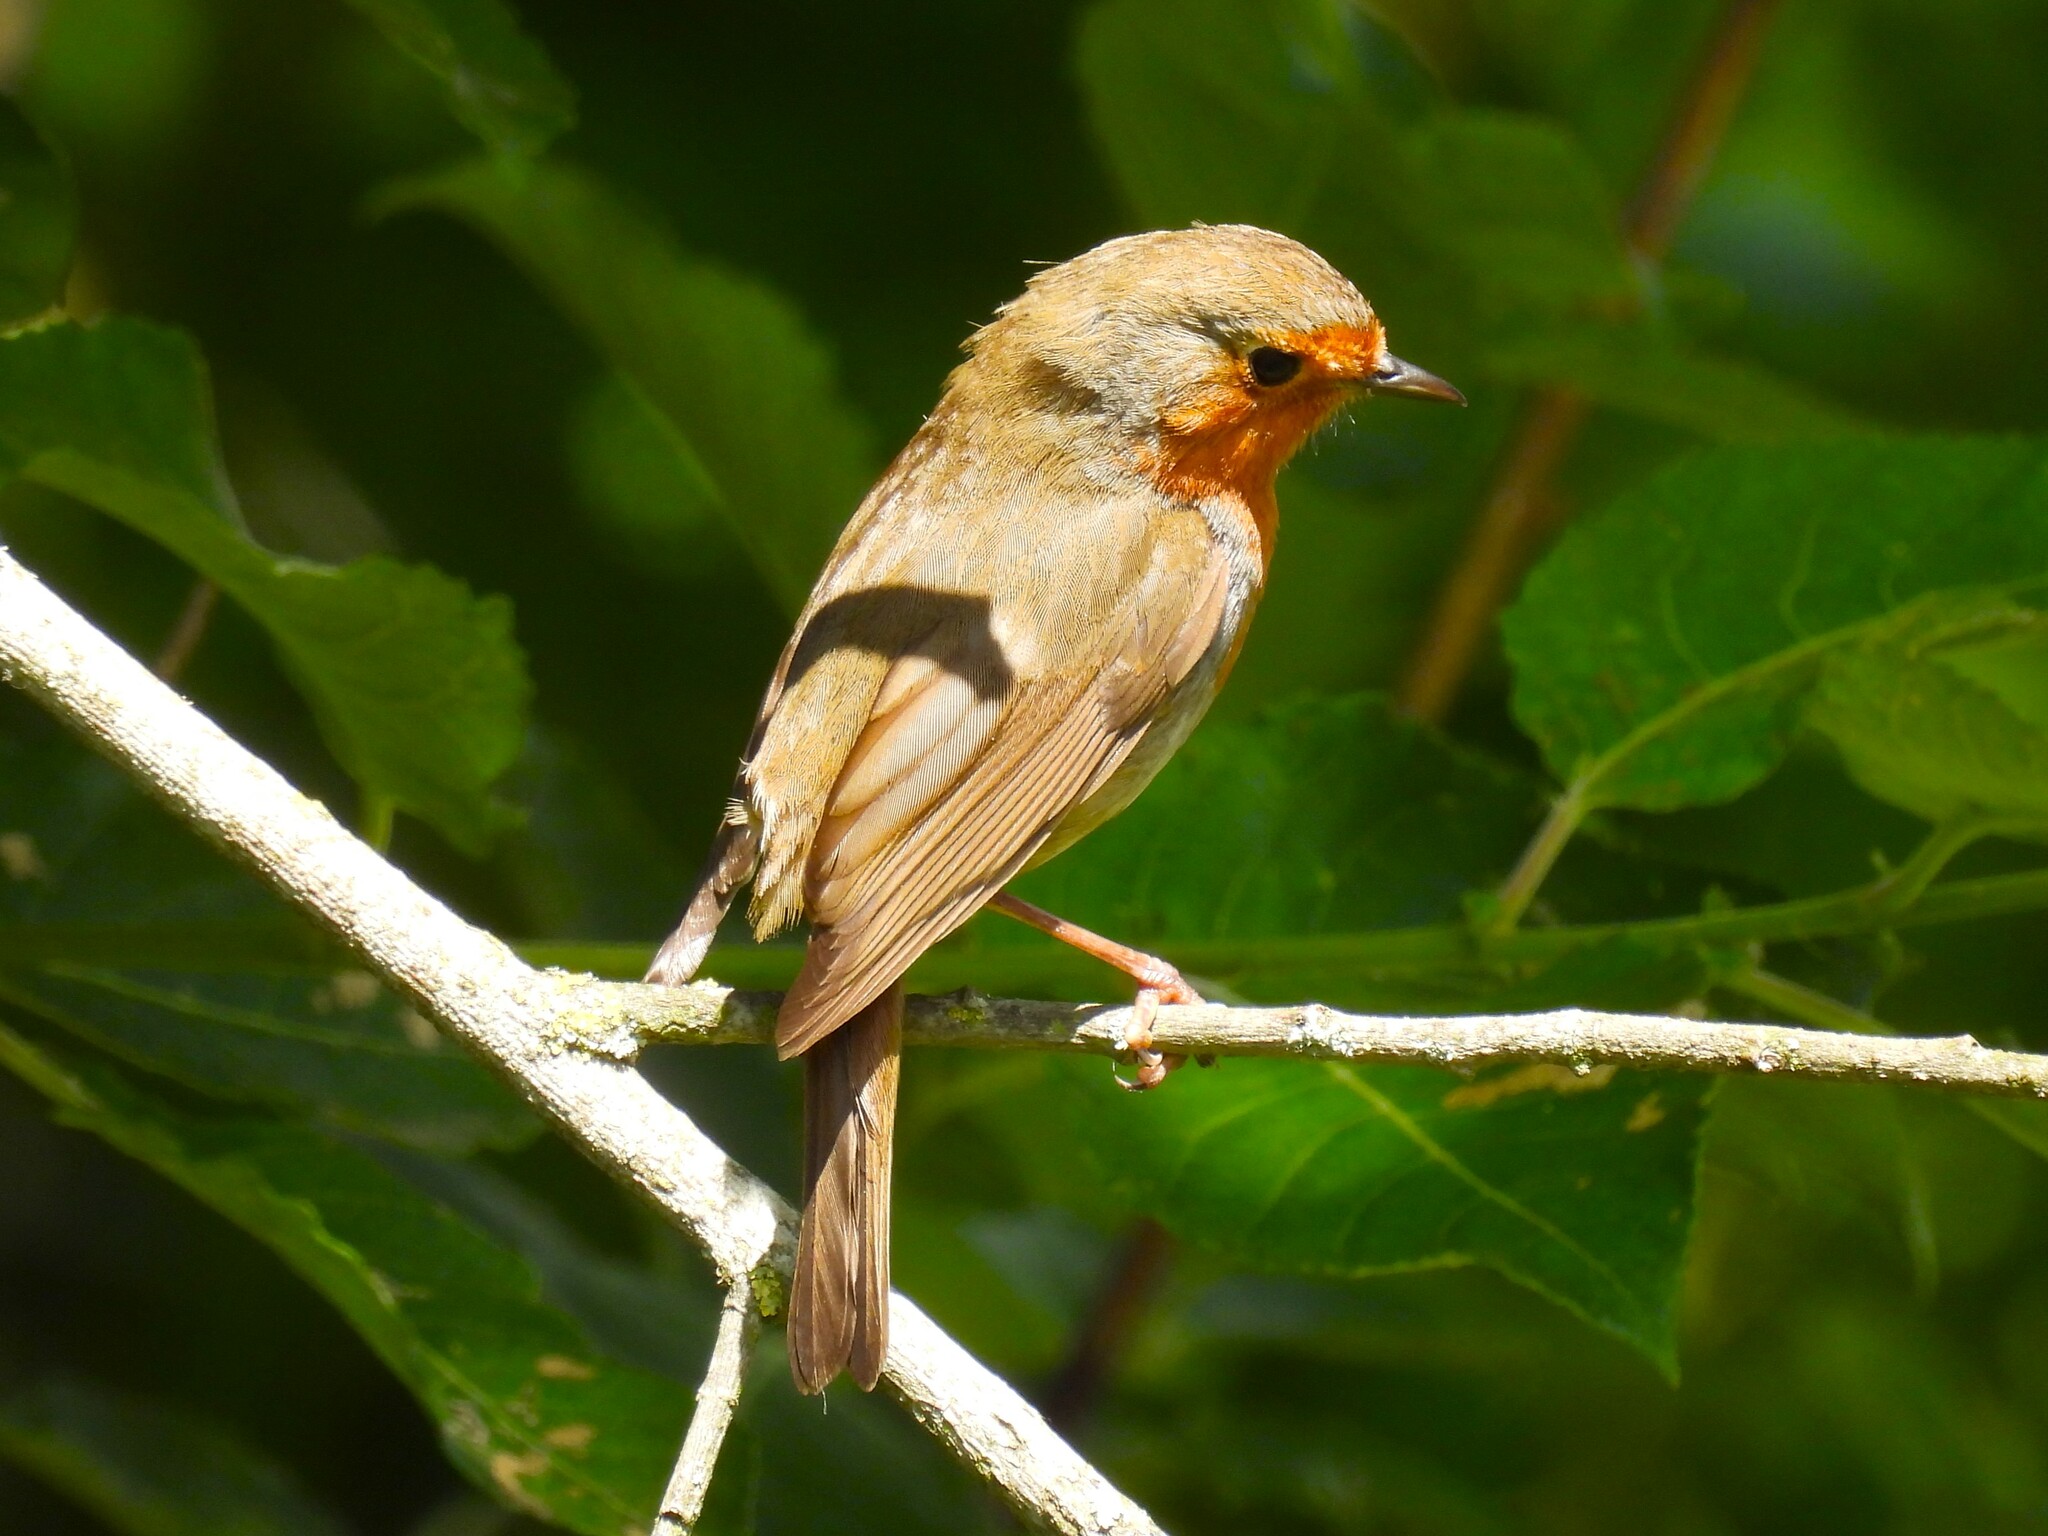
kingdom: Animalia
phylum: Chordata
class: Aves
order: Passeriformes
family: Muscicapidae
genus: Erithacus
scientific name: Erithacus rubecula
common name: European robin
